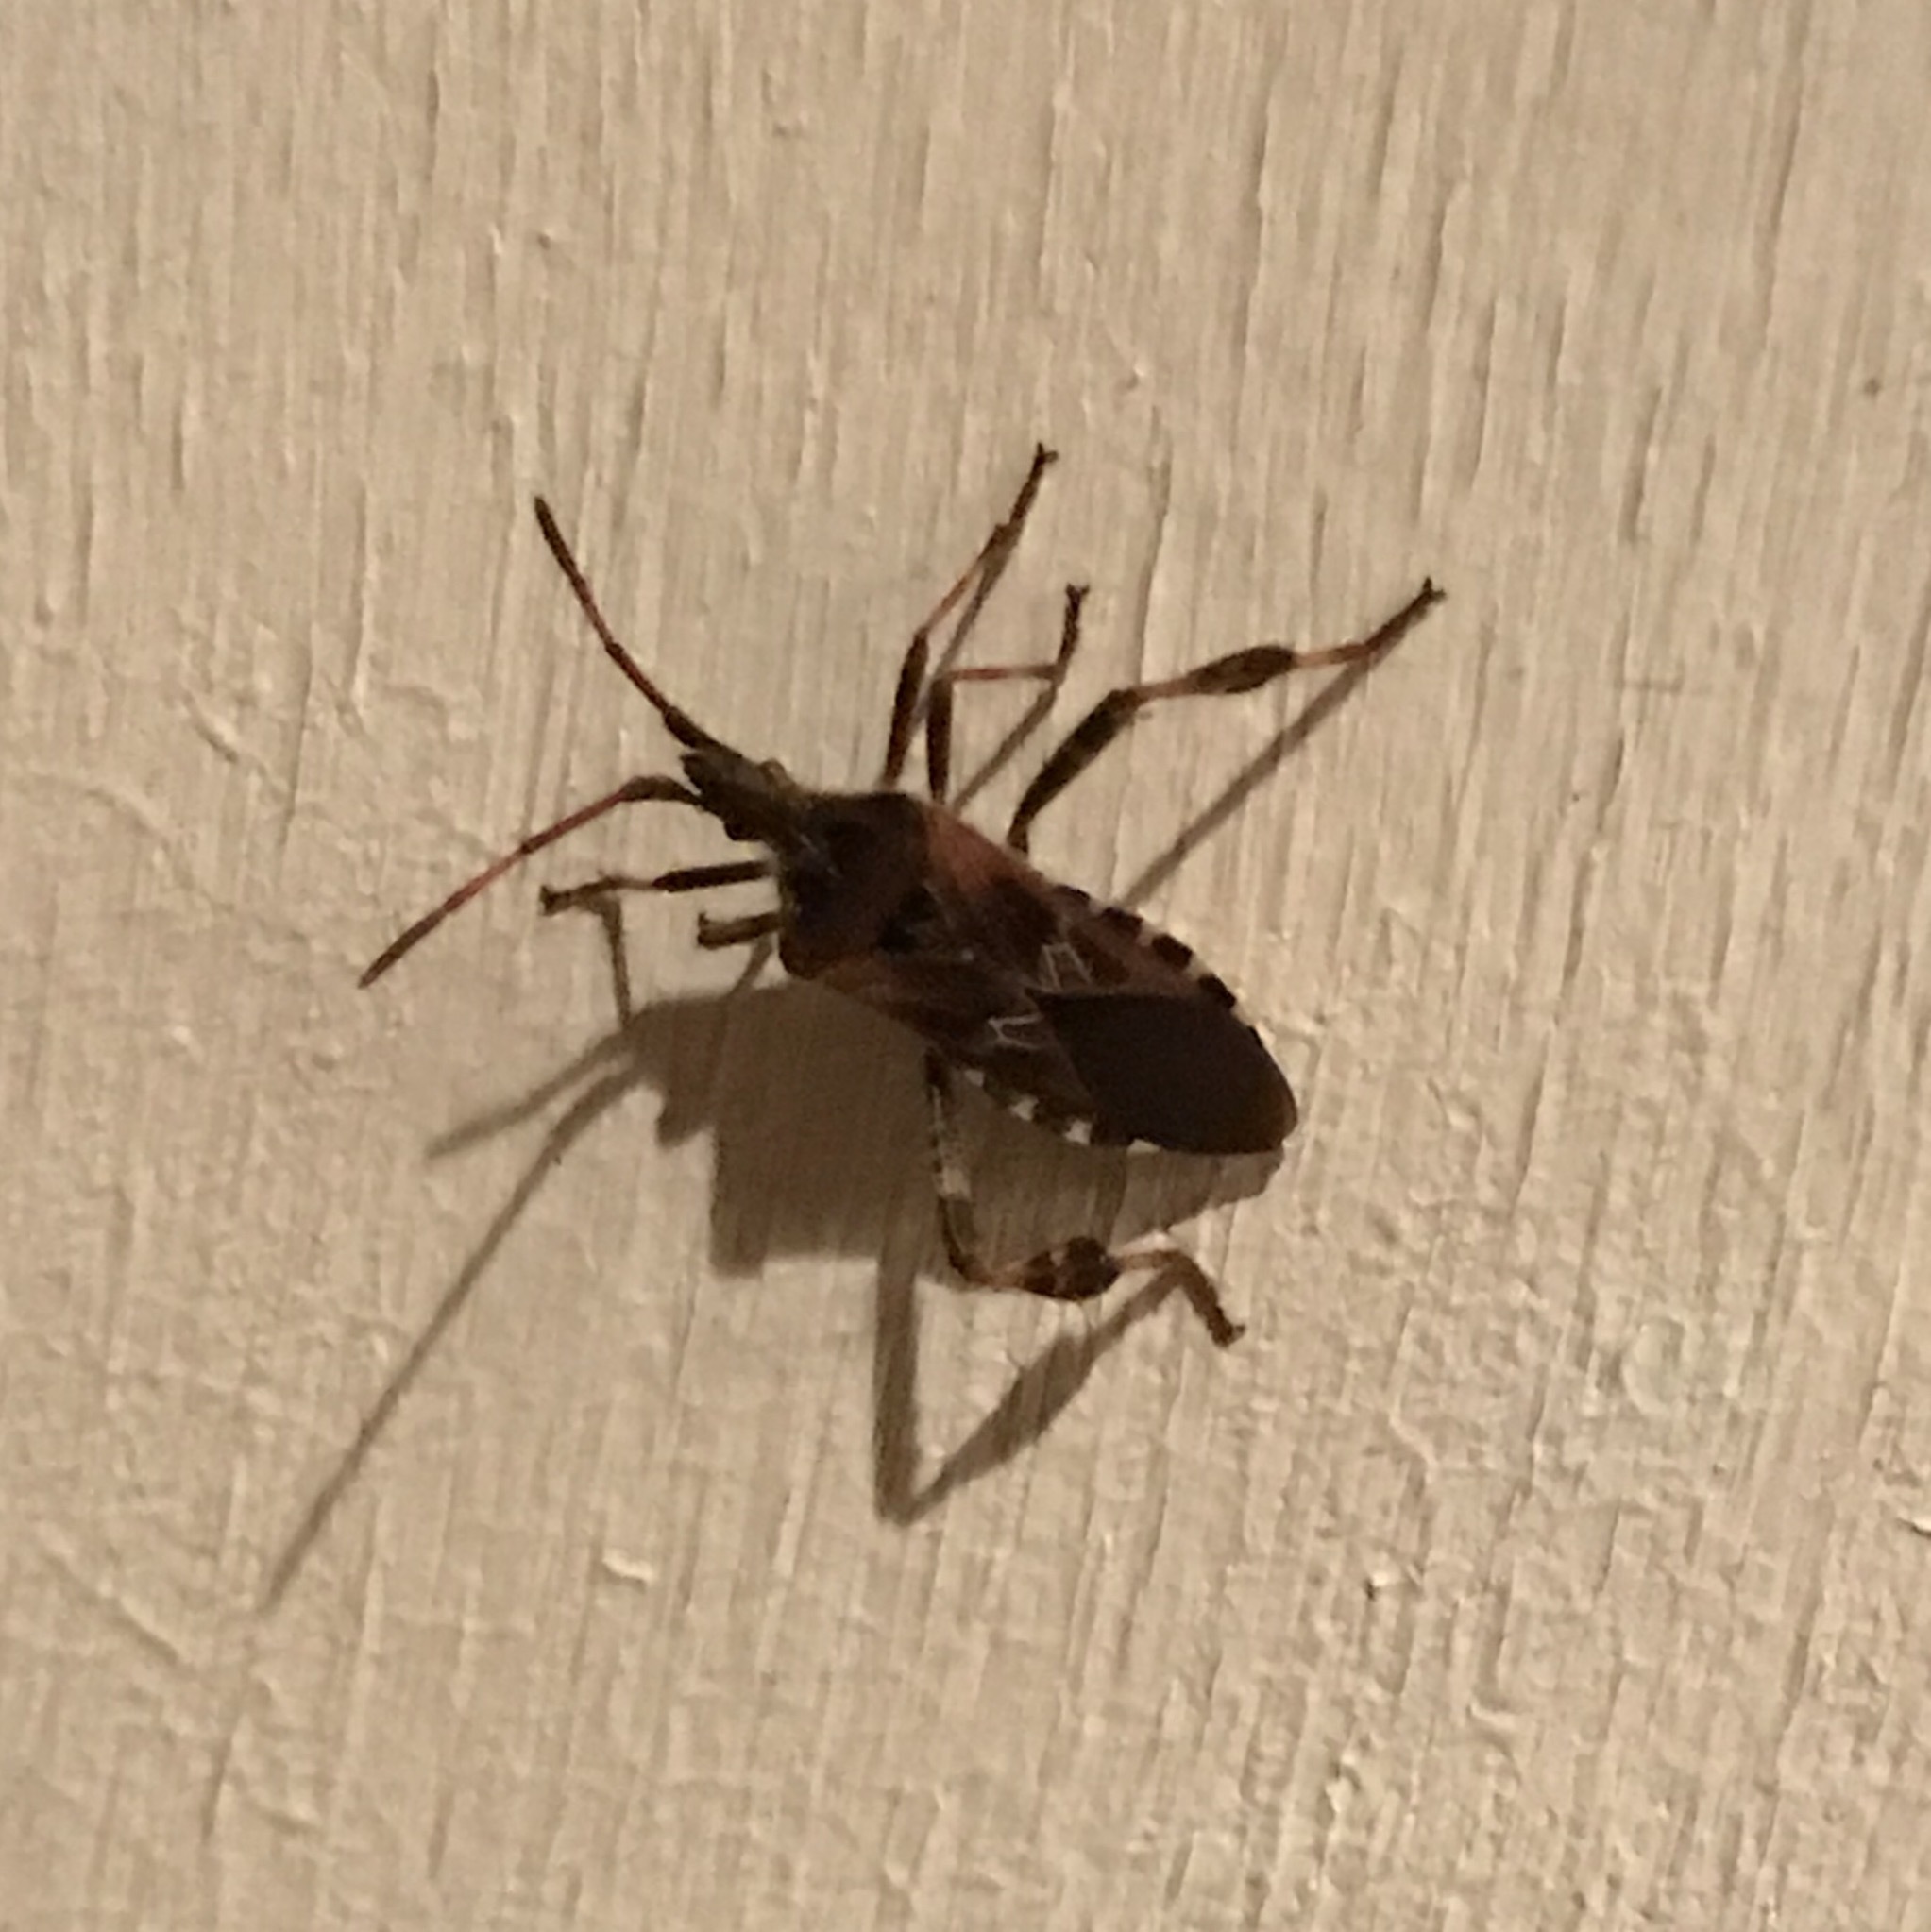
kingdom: Animalia
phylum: Arthropoda
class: Insecta
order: Hemiptera
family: Coreidae
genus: Leptoglossus
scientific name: Leptoglossus occidentalis
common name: Western conifer-seed bug
